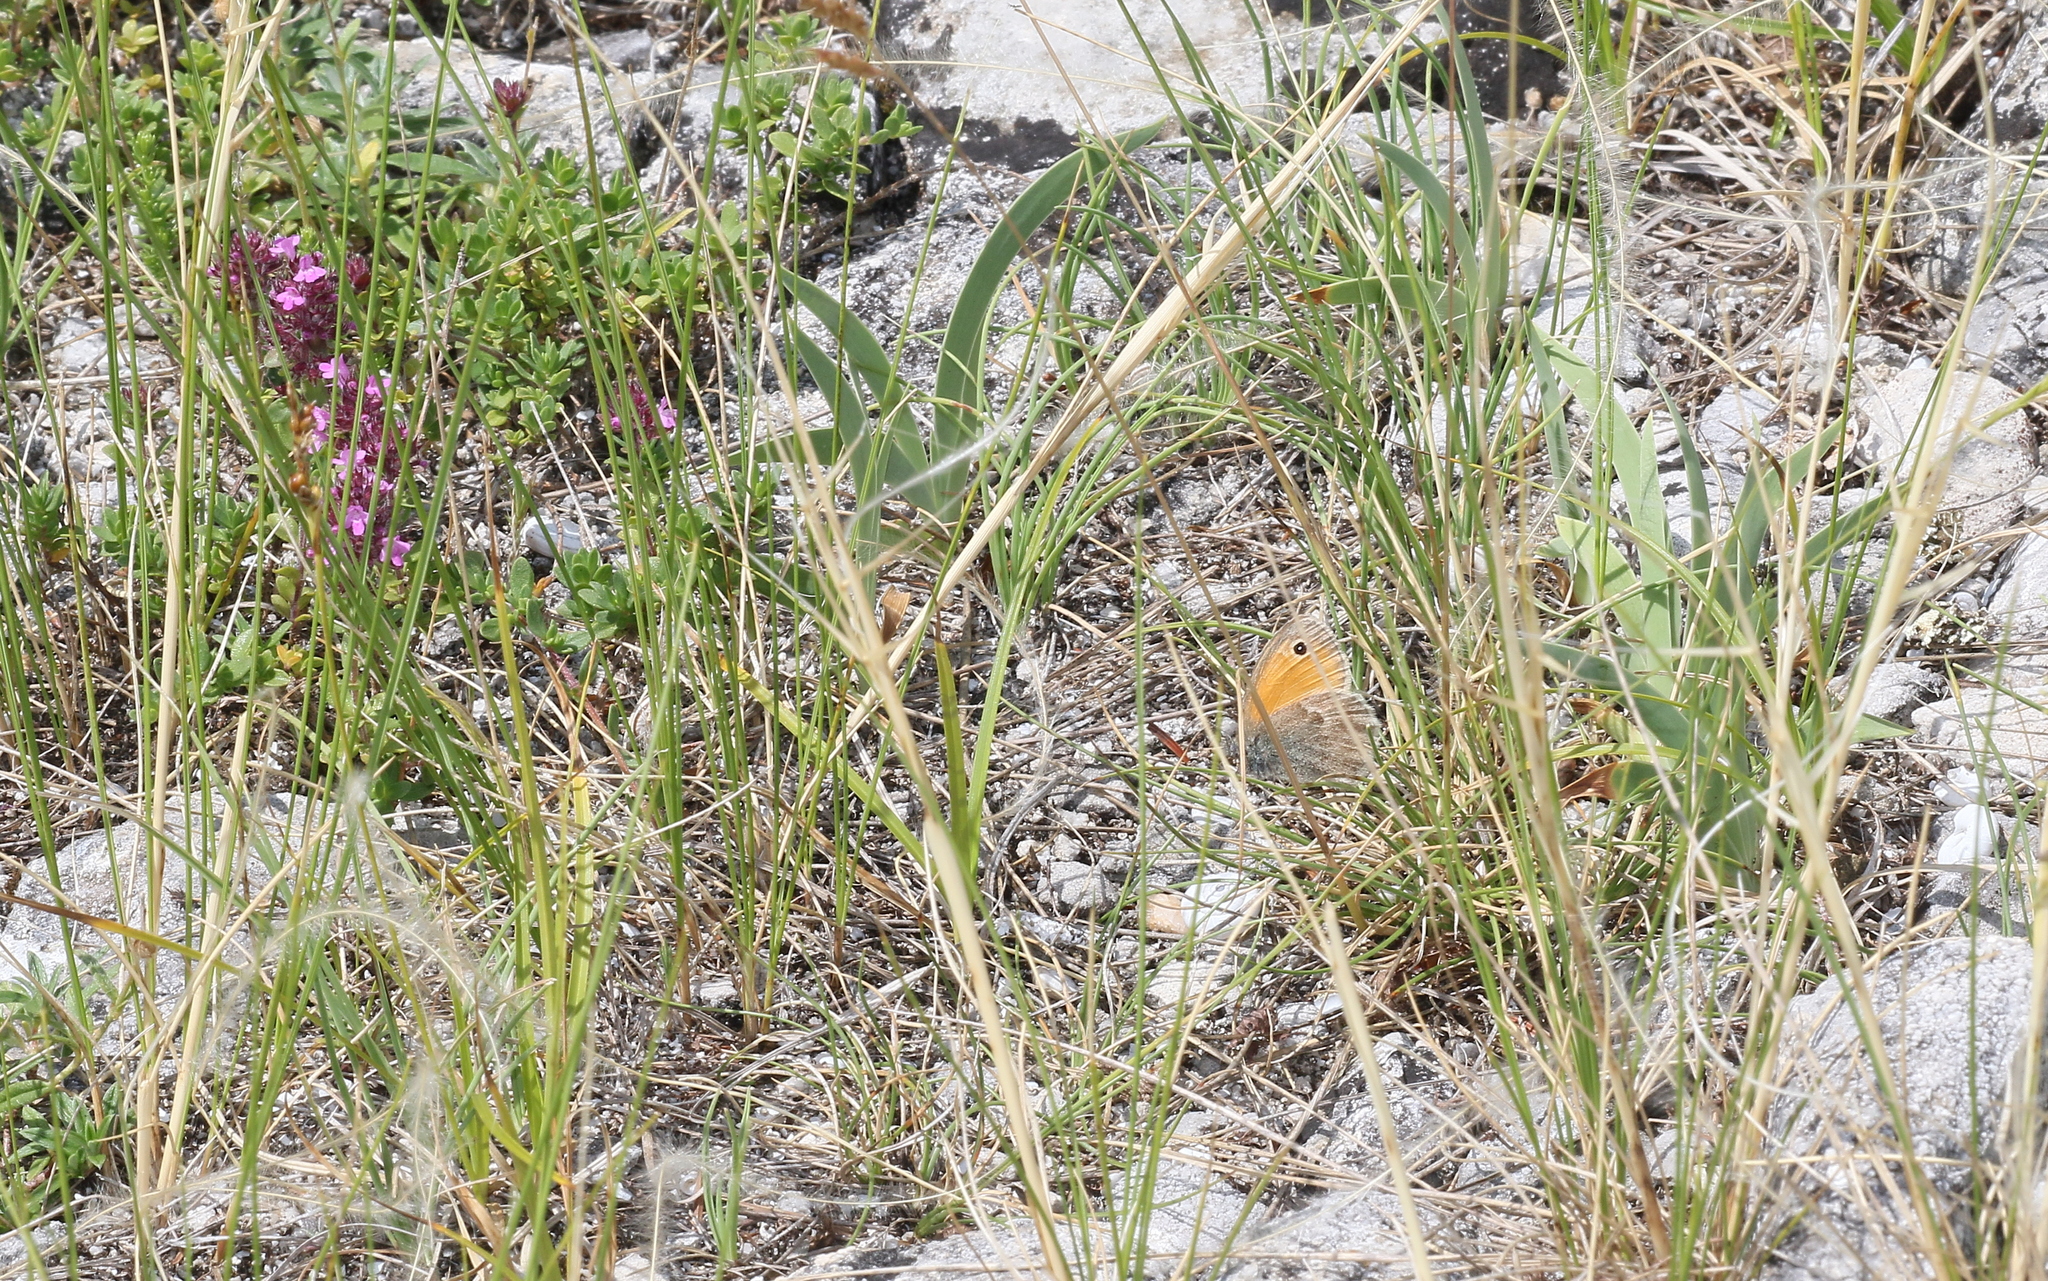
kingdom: Animalia
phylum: Arthropoda
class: Insecta
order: Lepidoptera
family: Nymphalidae
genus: Coenonympha
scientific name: Coenonympha pamphilus
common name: Small heath
